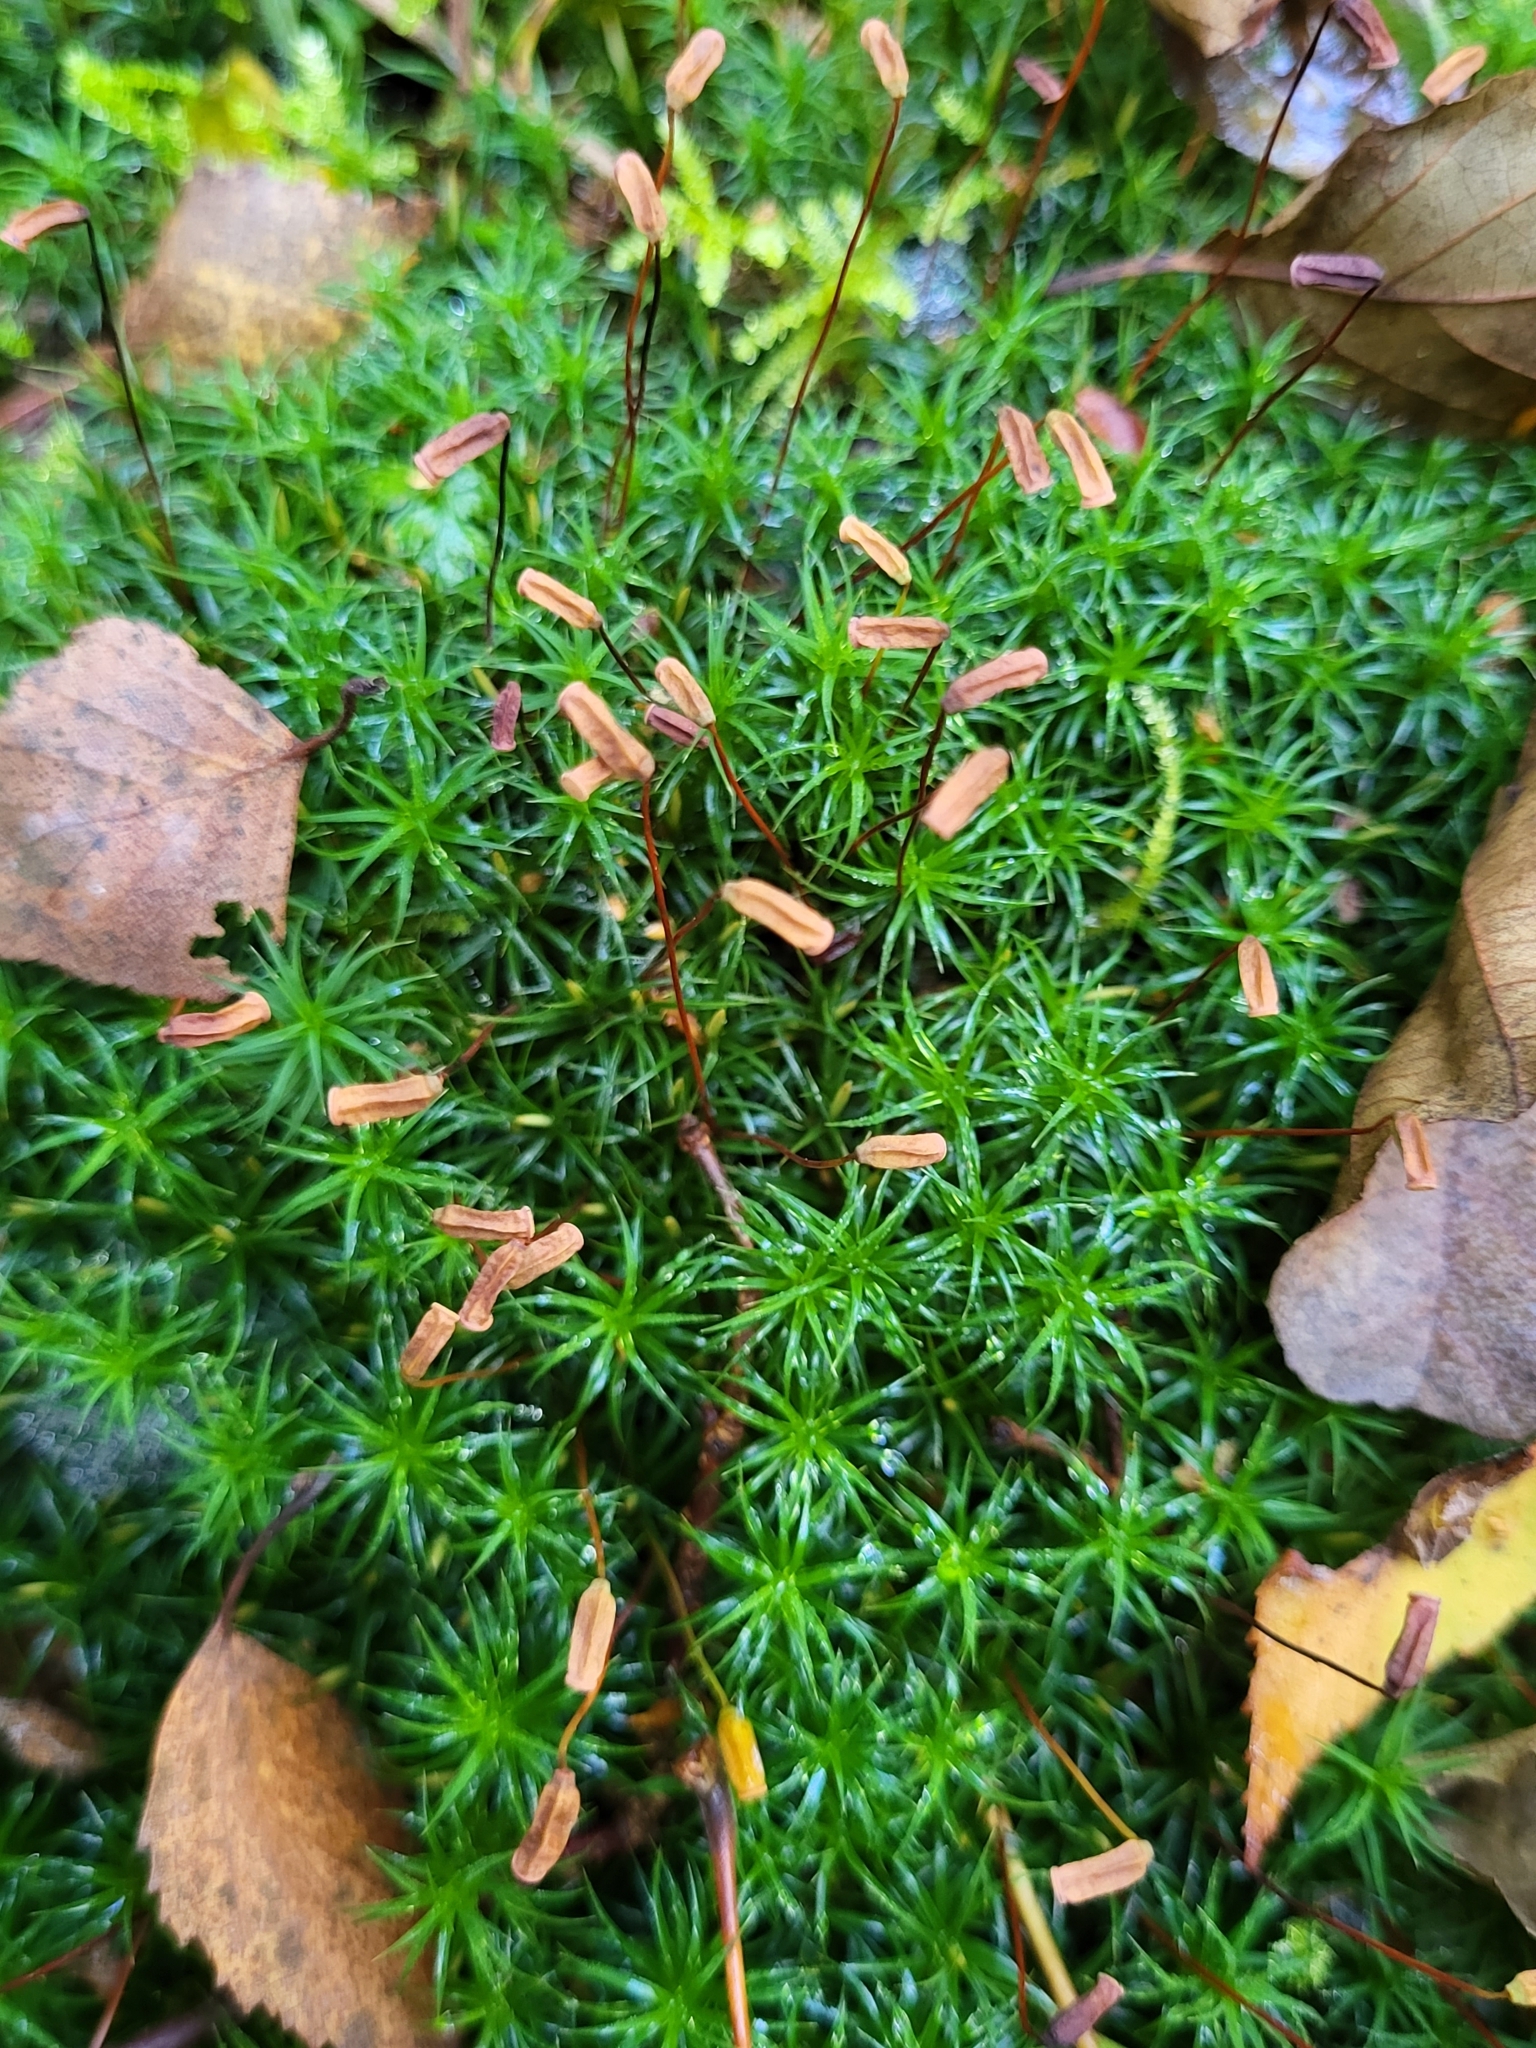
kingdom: Plantae
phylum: Bryophyta
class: Polytrichopsida
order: Polytrichales
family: Polytrichaceae
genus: Polytrichum
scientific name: Polytrichum formosum
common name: Bank haircap moss
